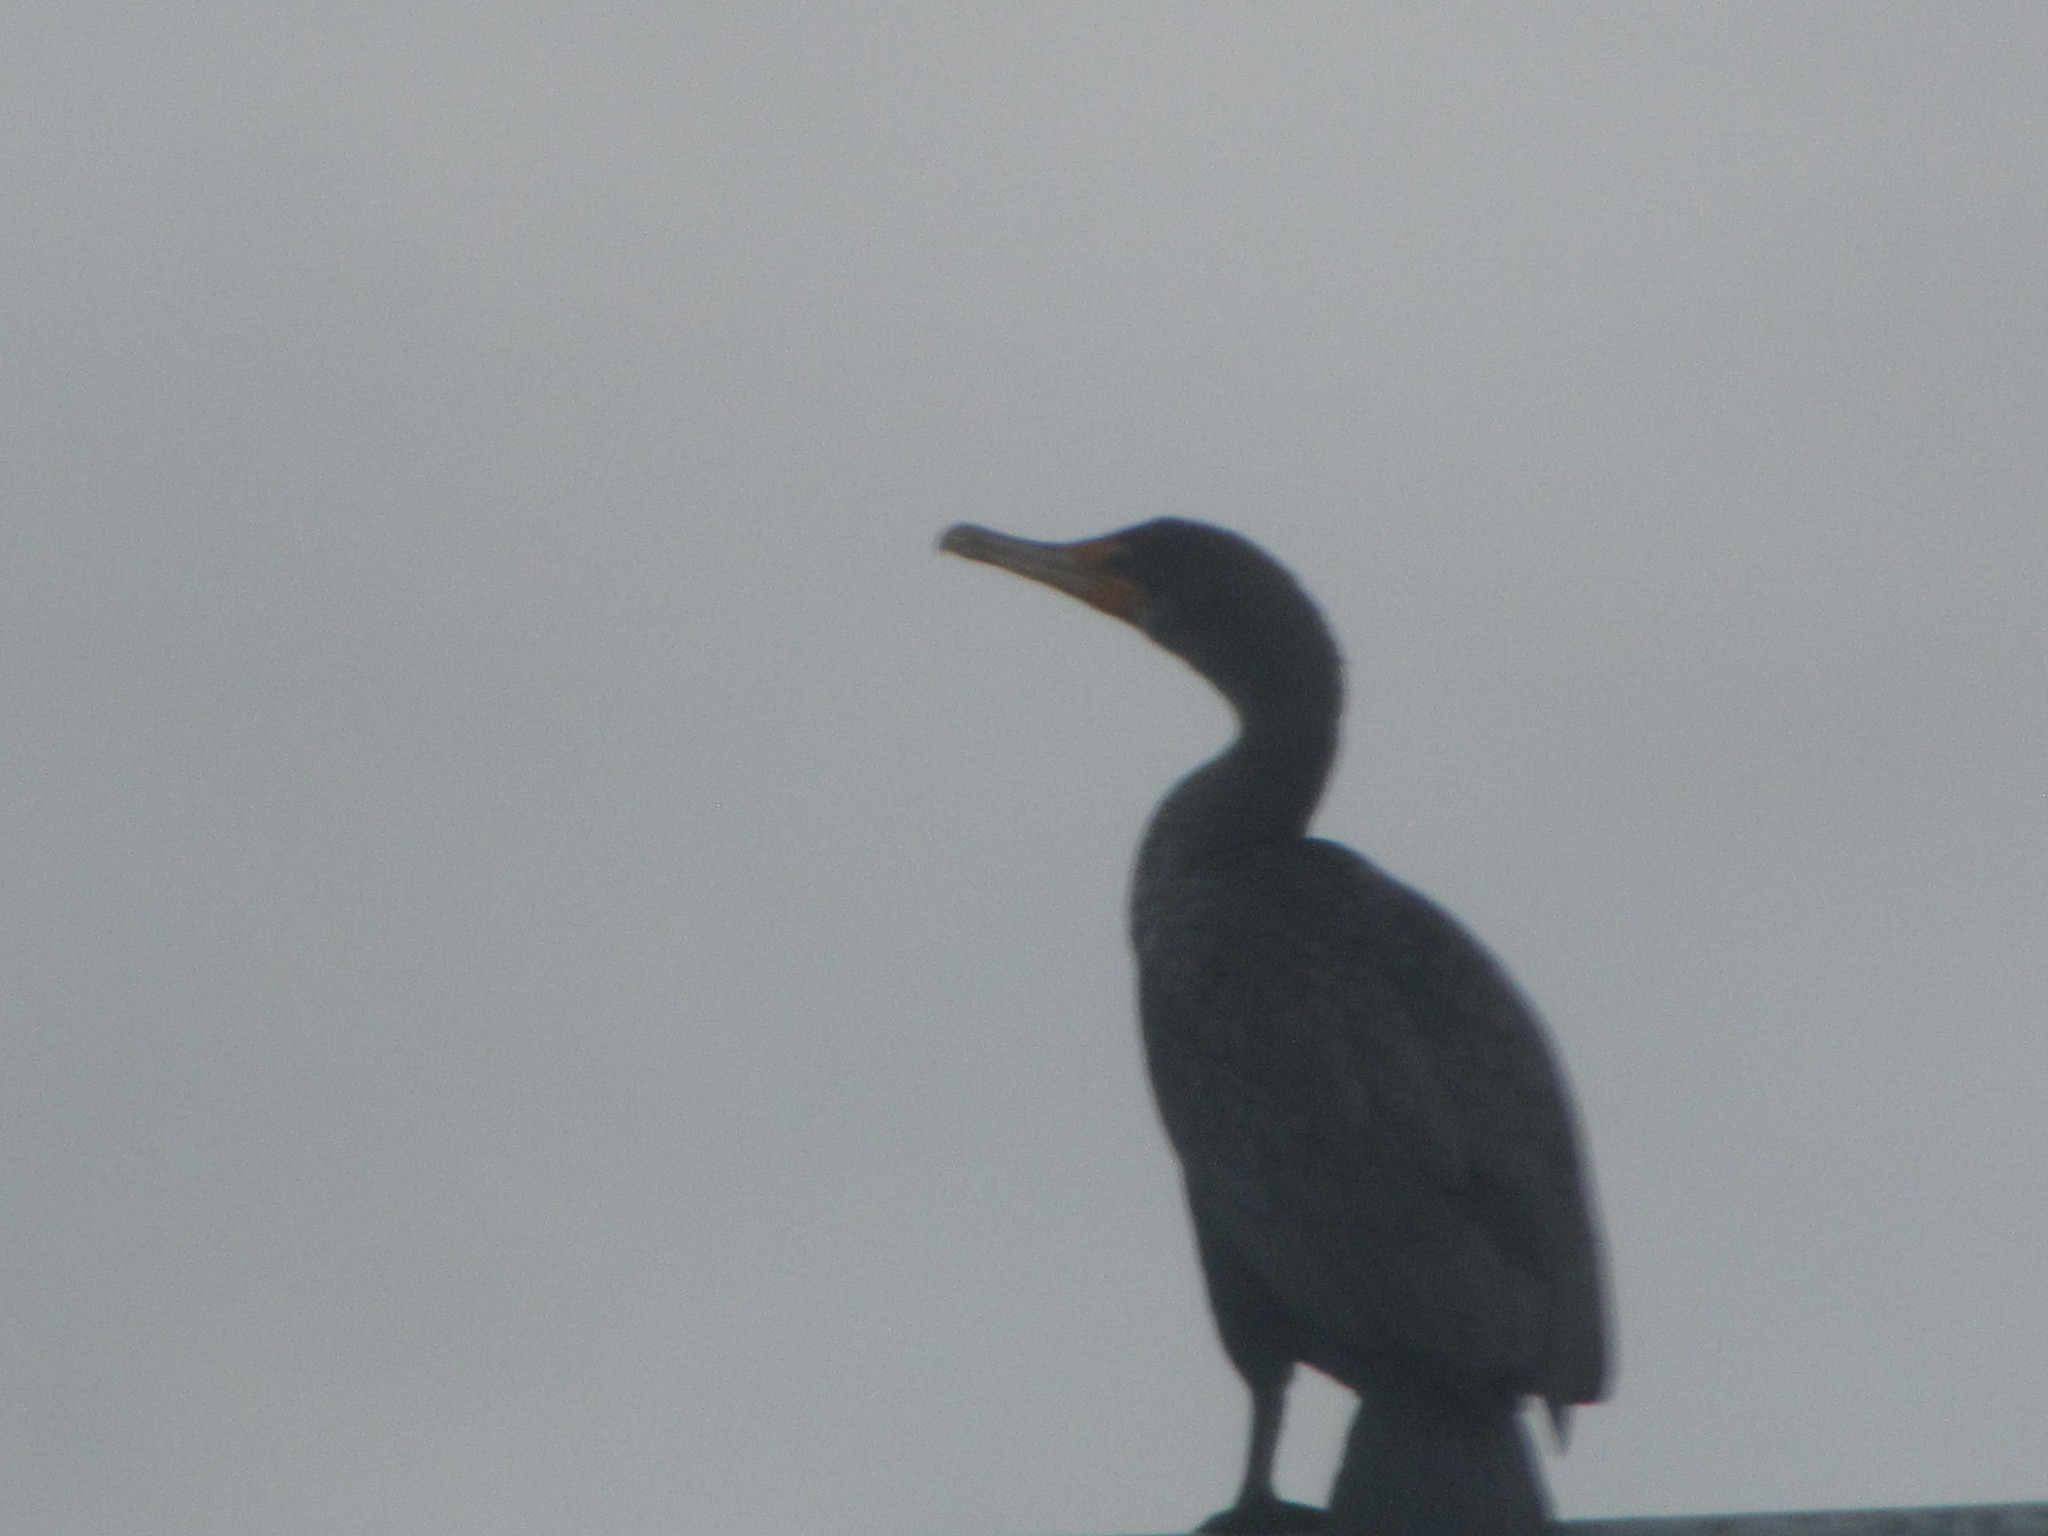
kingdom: Animalia
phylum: Chordata
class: Aves
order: Suliformes
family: Phalacrocoracidae
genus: Phalacrocorax
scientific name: Phalacrocorax auritus
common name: Double-crested cormorant
